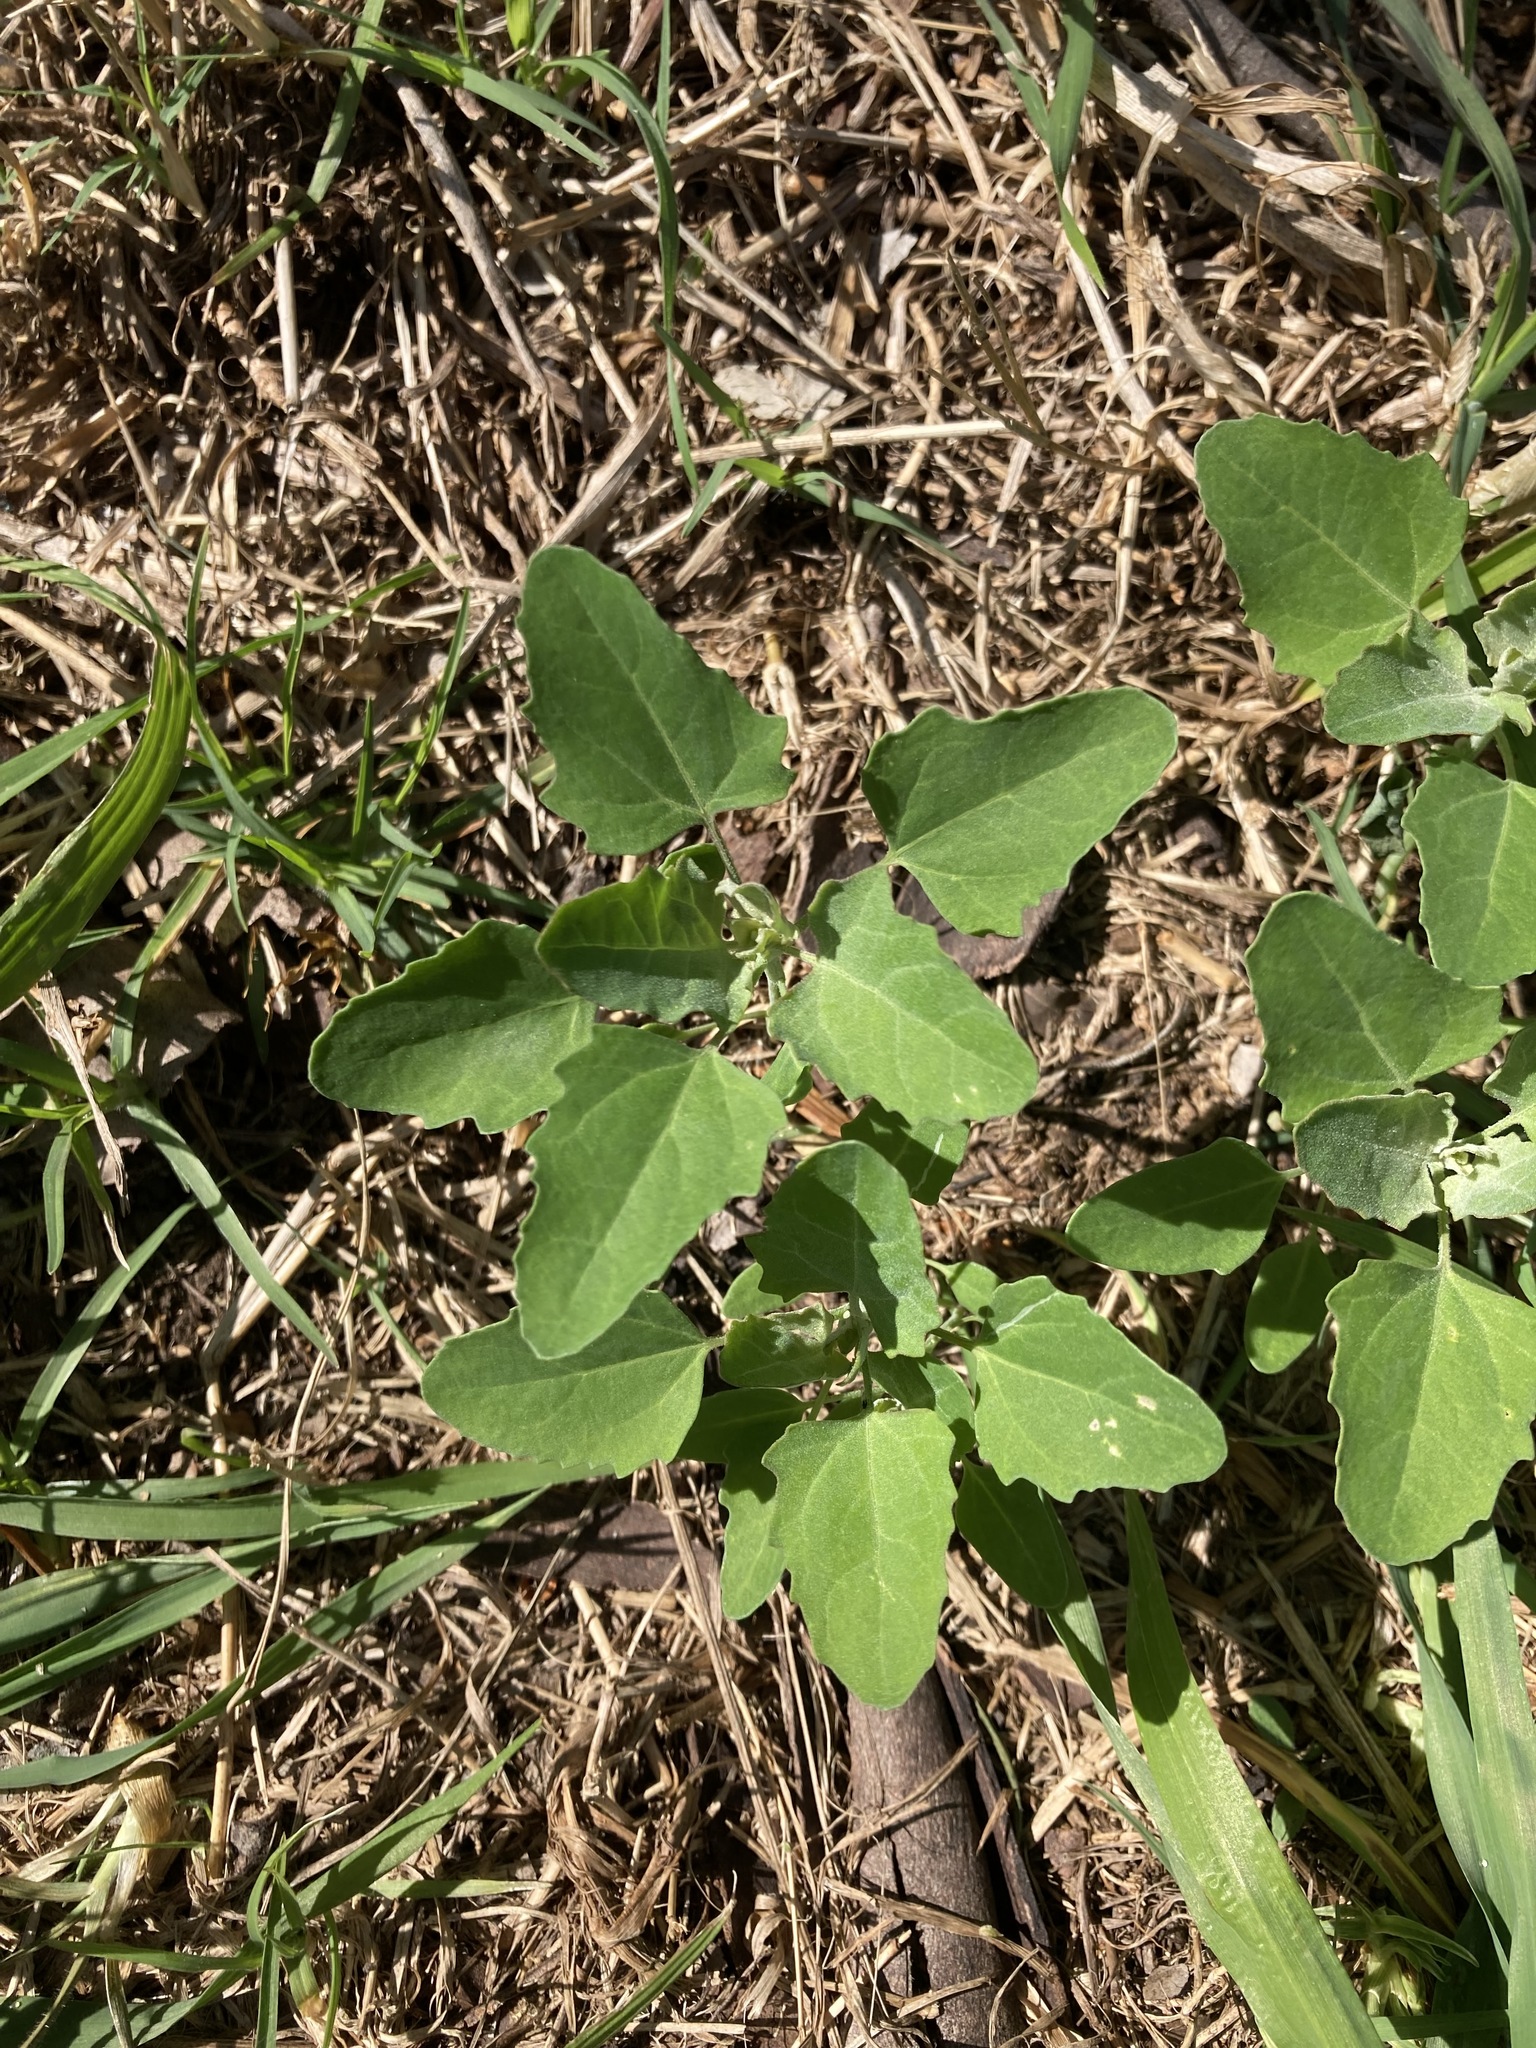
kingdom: Plantae
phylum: Tracheophyta
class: Magnoliopsida
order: Caryophyllales
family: Amaranthaceae
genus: Chenopodium
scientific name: Chenopodium album
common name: Fat-hen
